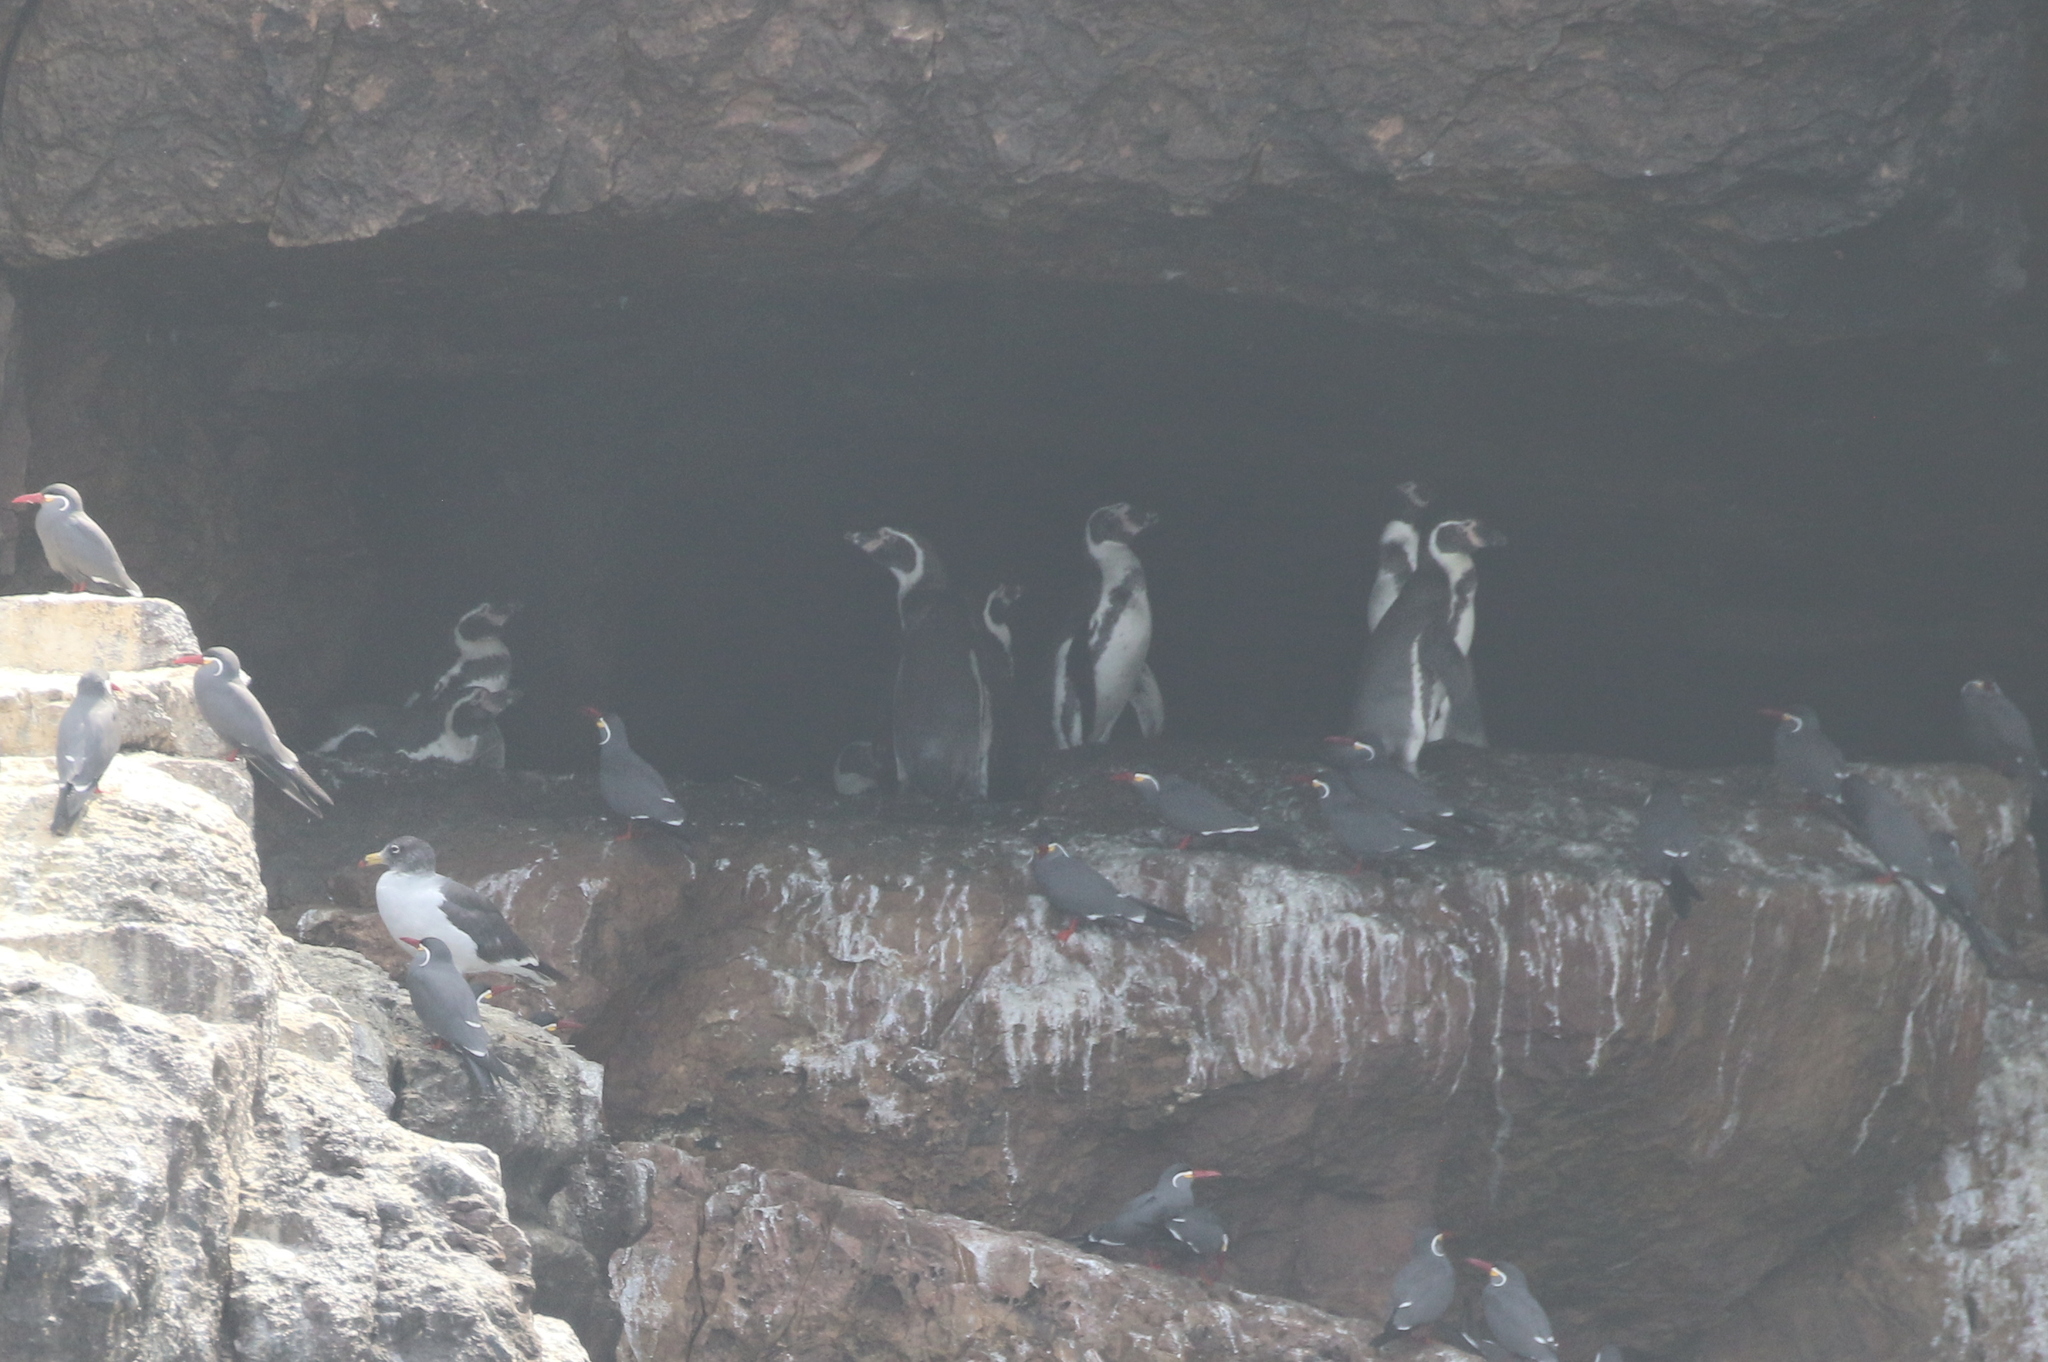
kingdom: Animalia
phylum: Chordata
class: Aves
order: Sphenisciformes
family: Spheniscidae
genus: Spheniscus
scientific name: Spheniscus humboldti
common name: Humboldt penguin
